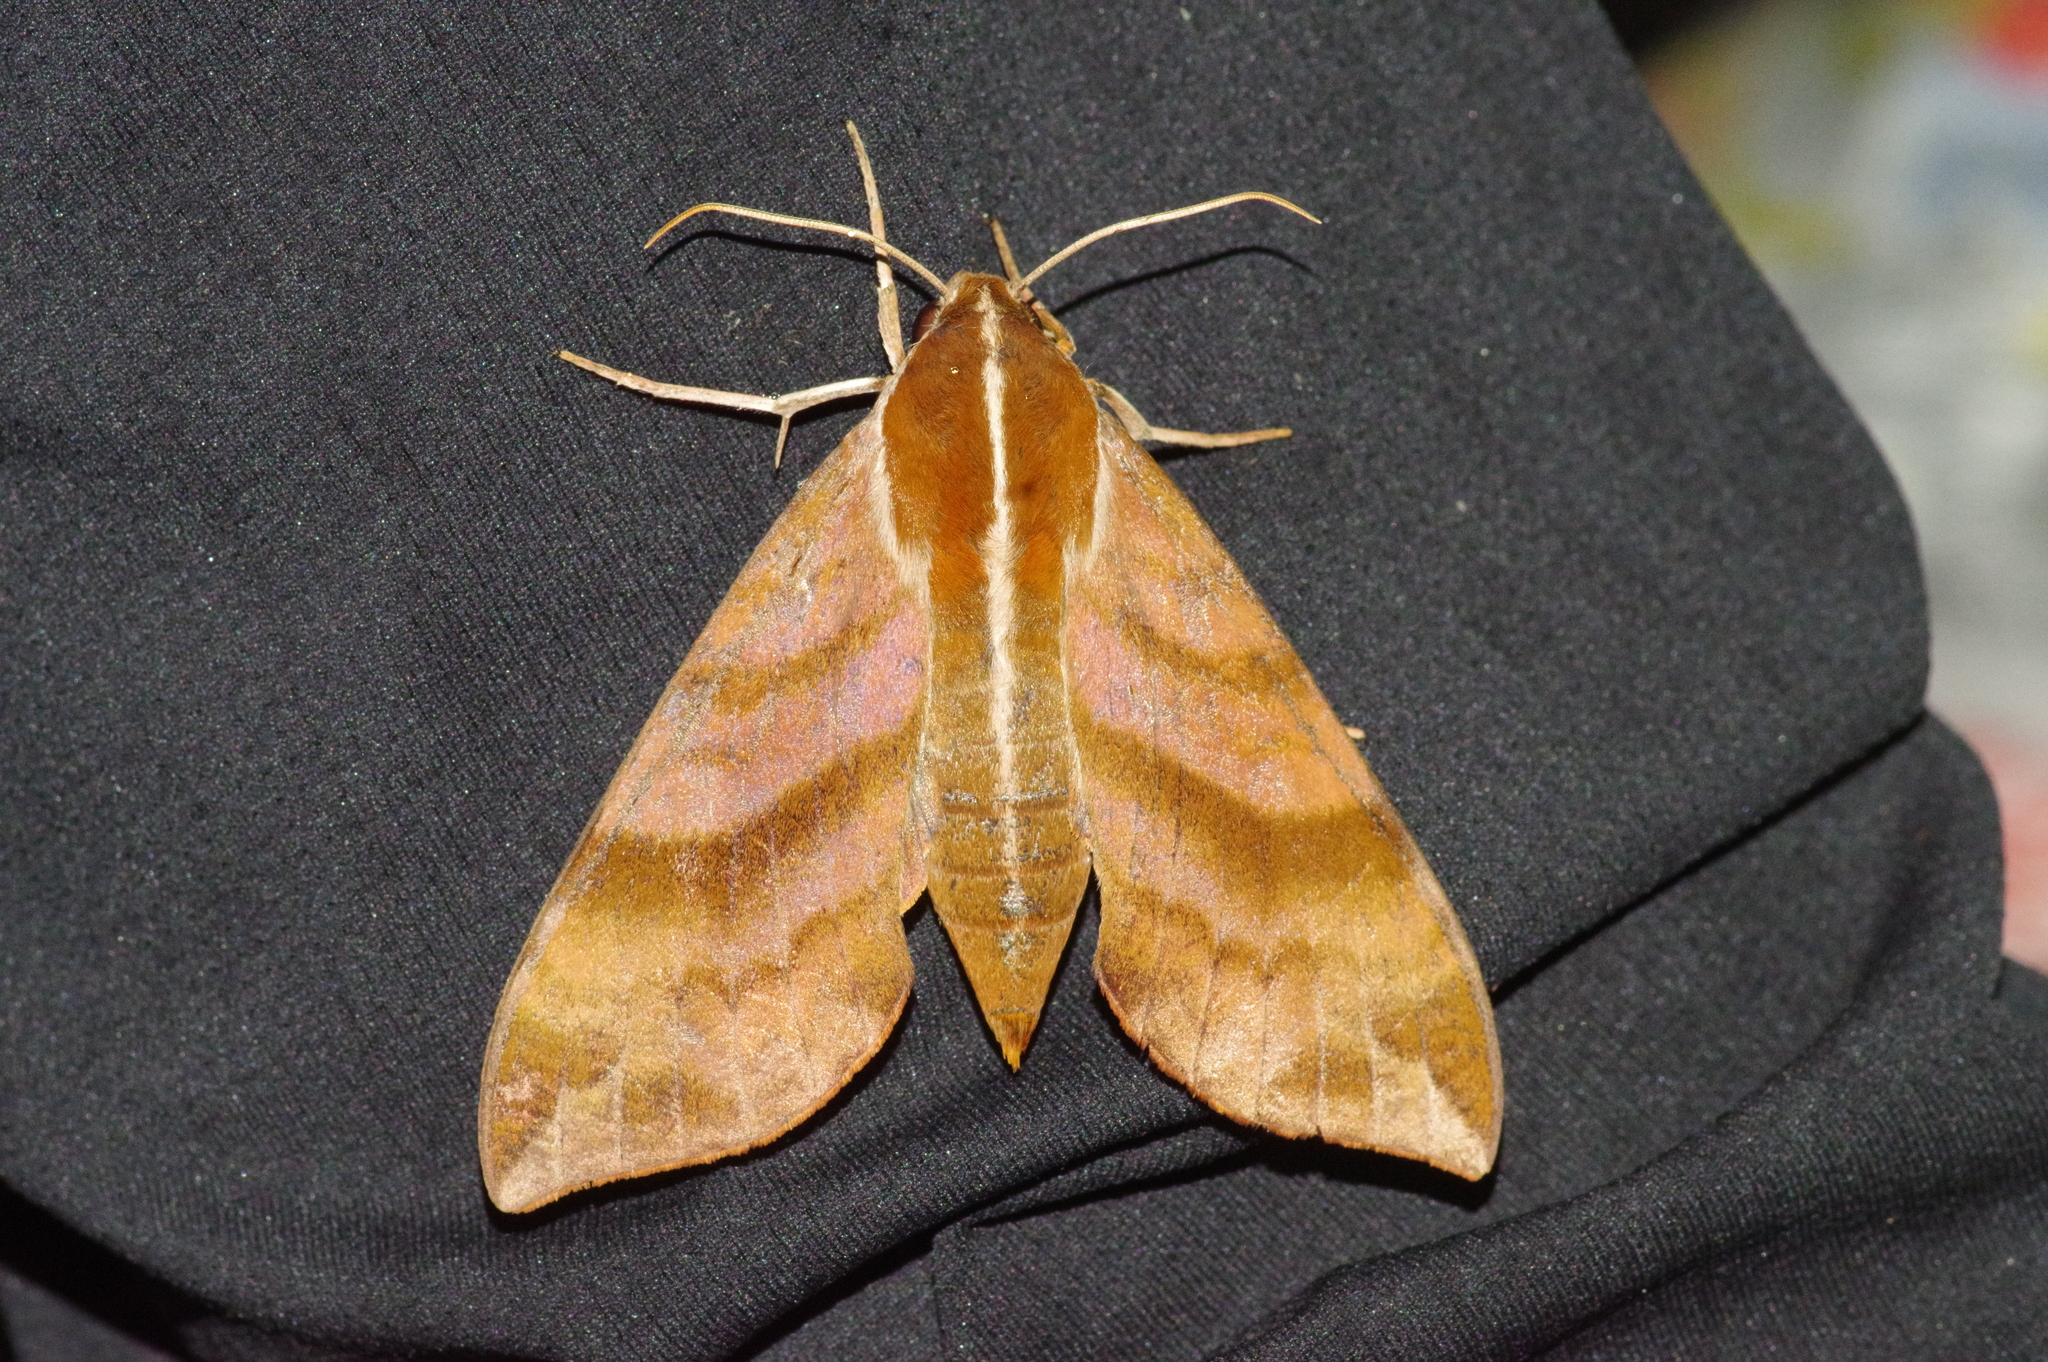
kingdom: Animalia
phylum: Arthropoda
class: Insecta
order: Lepidoptera
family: Sphingidae
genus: Ampelophaga
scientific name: Ampelophaga rubiginosa
